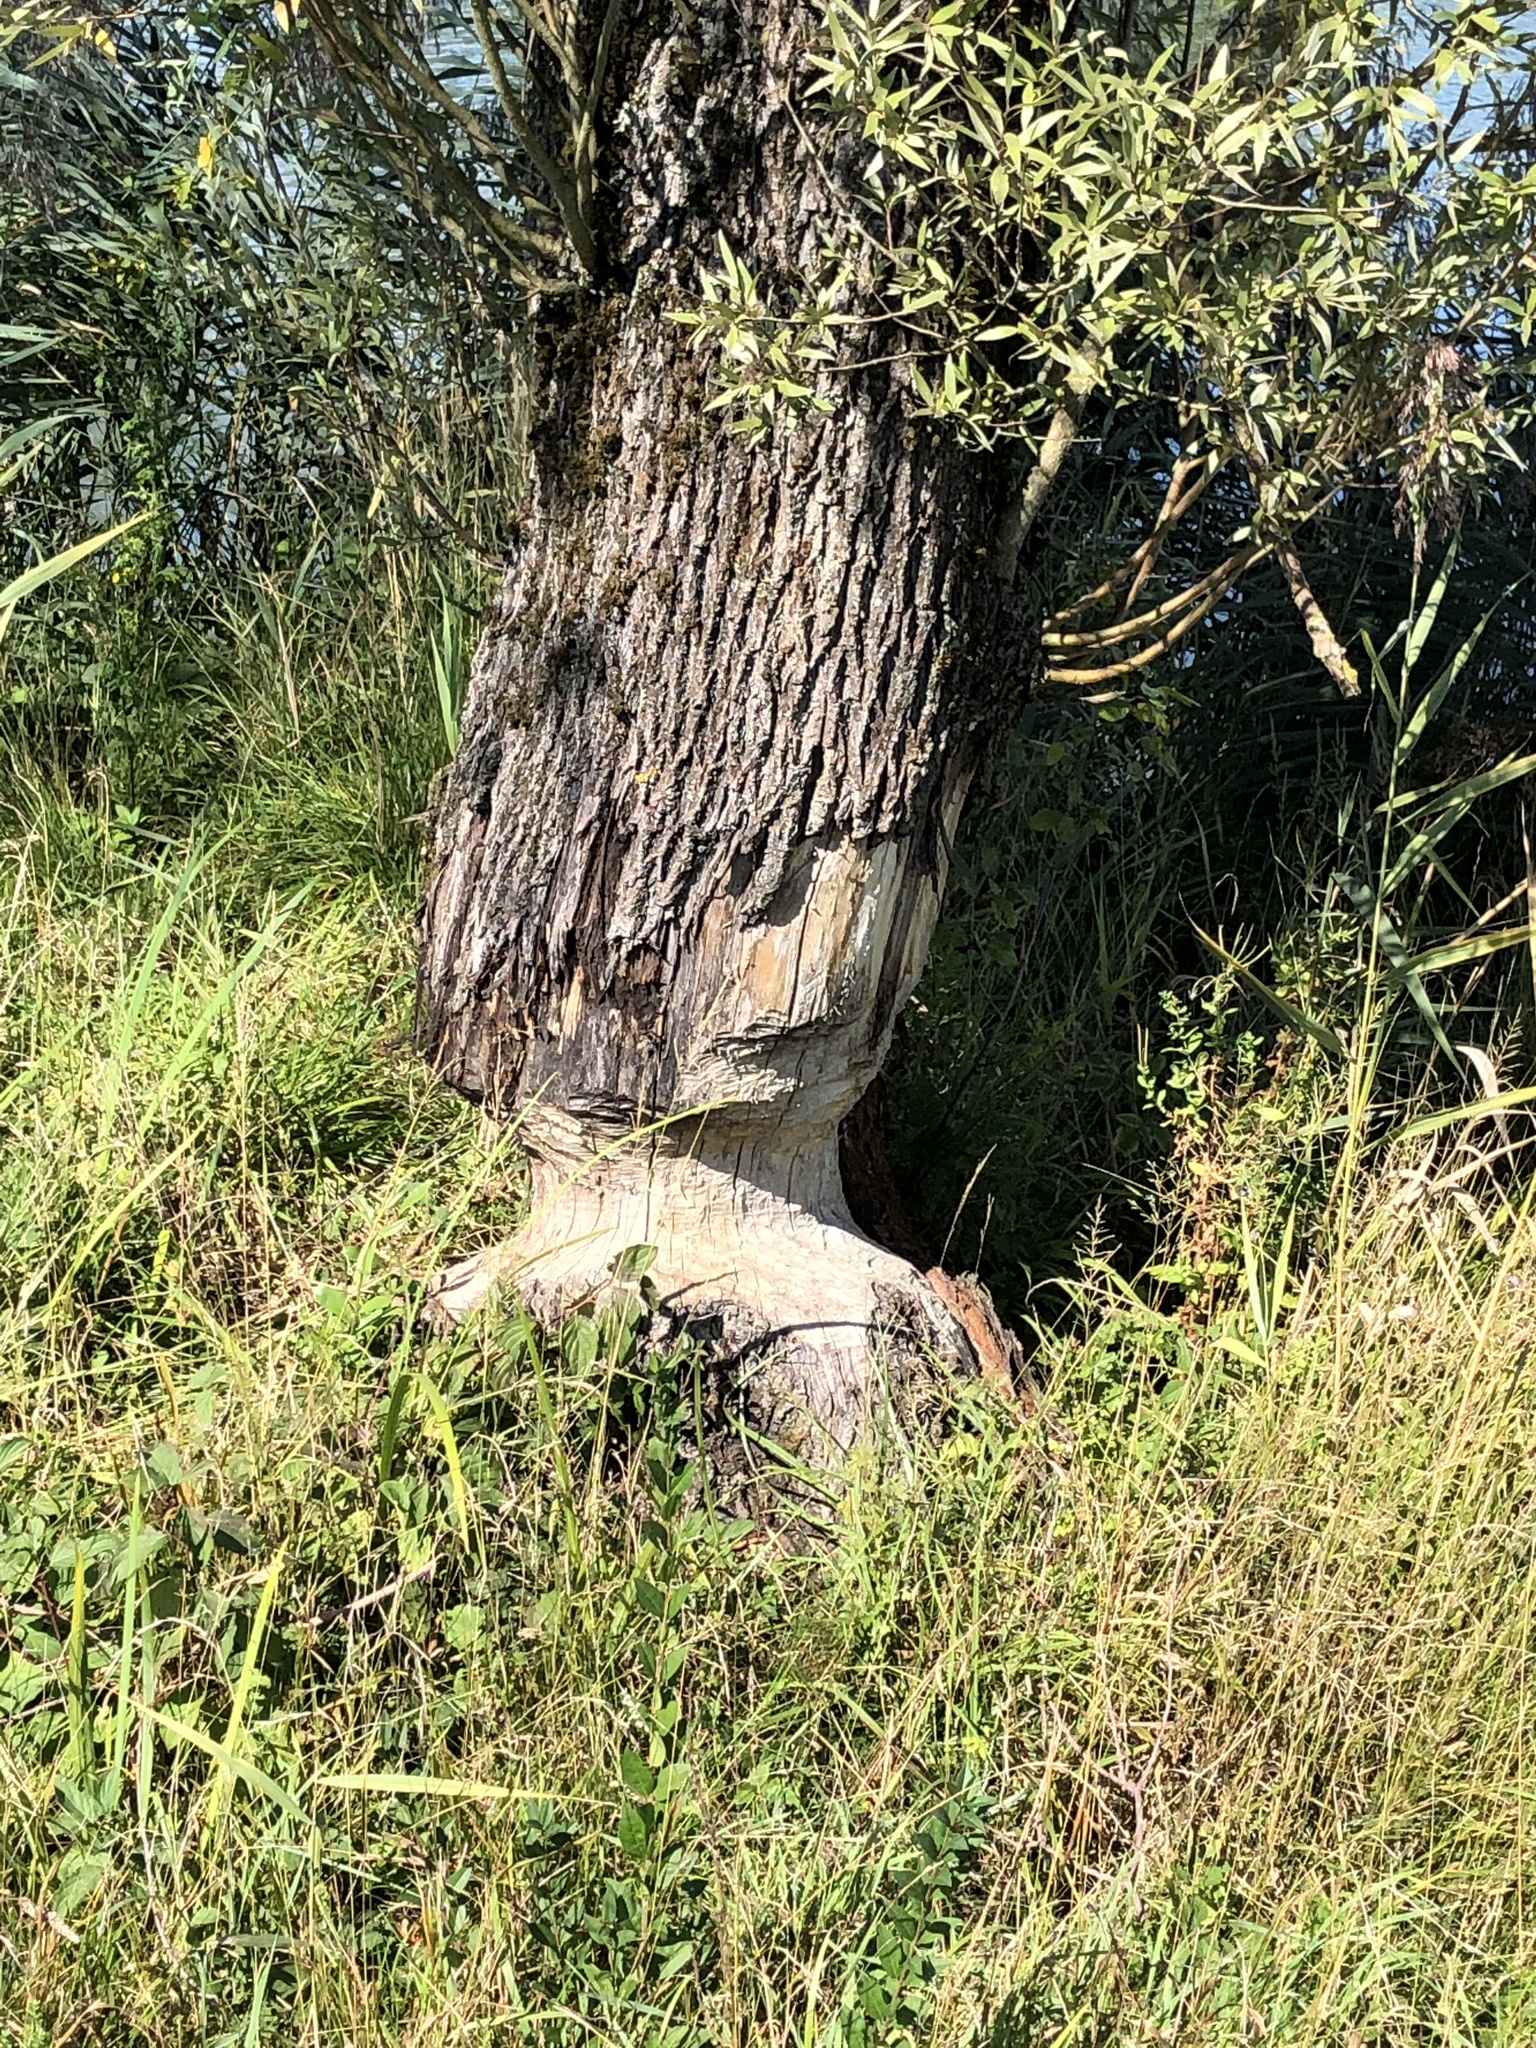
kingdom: Animalia
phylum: Chordata
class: Mammalia
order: Rodentia
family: Castoridae
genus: Castor
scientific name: Castor fiber
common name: Eurasian beaver
